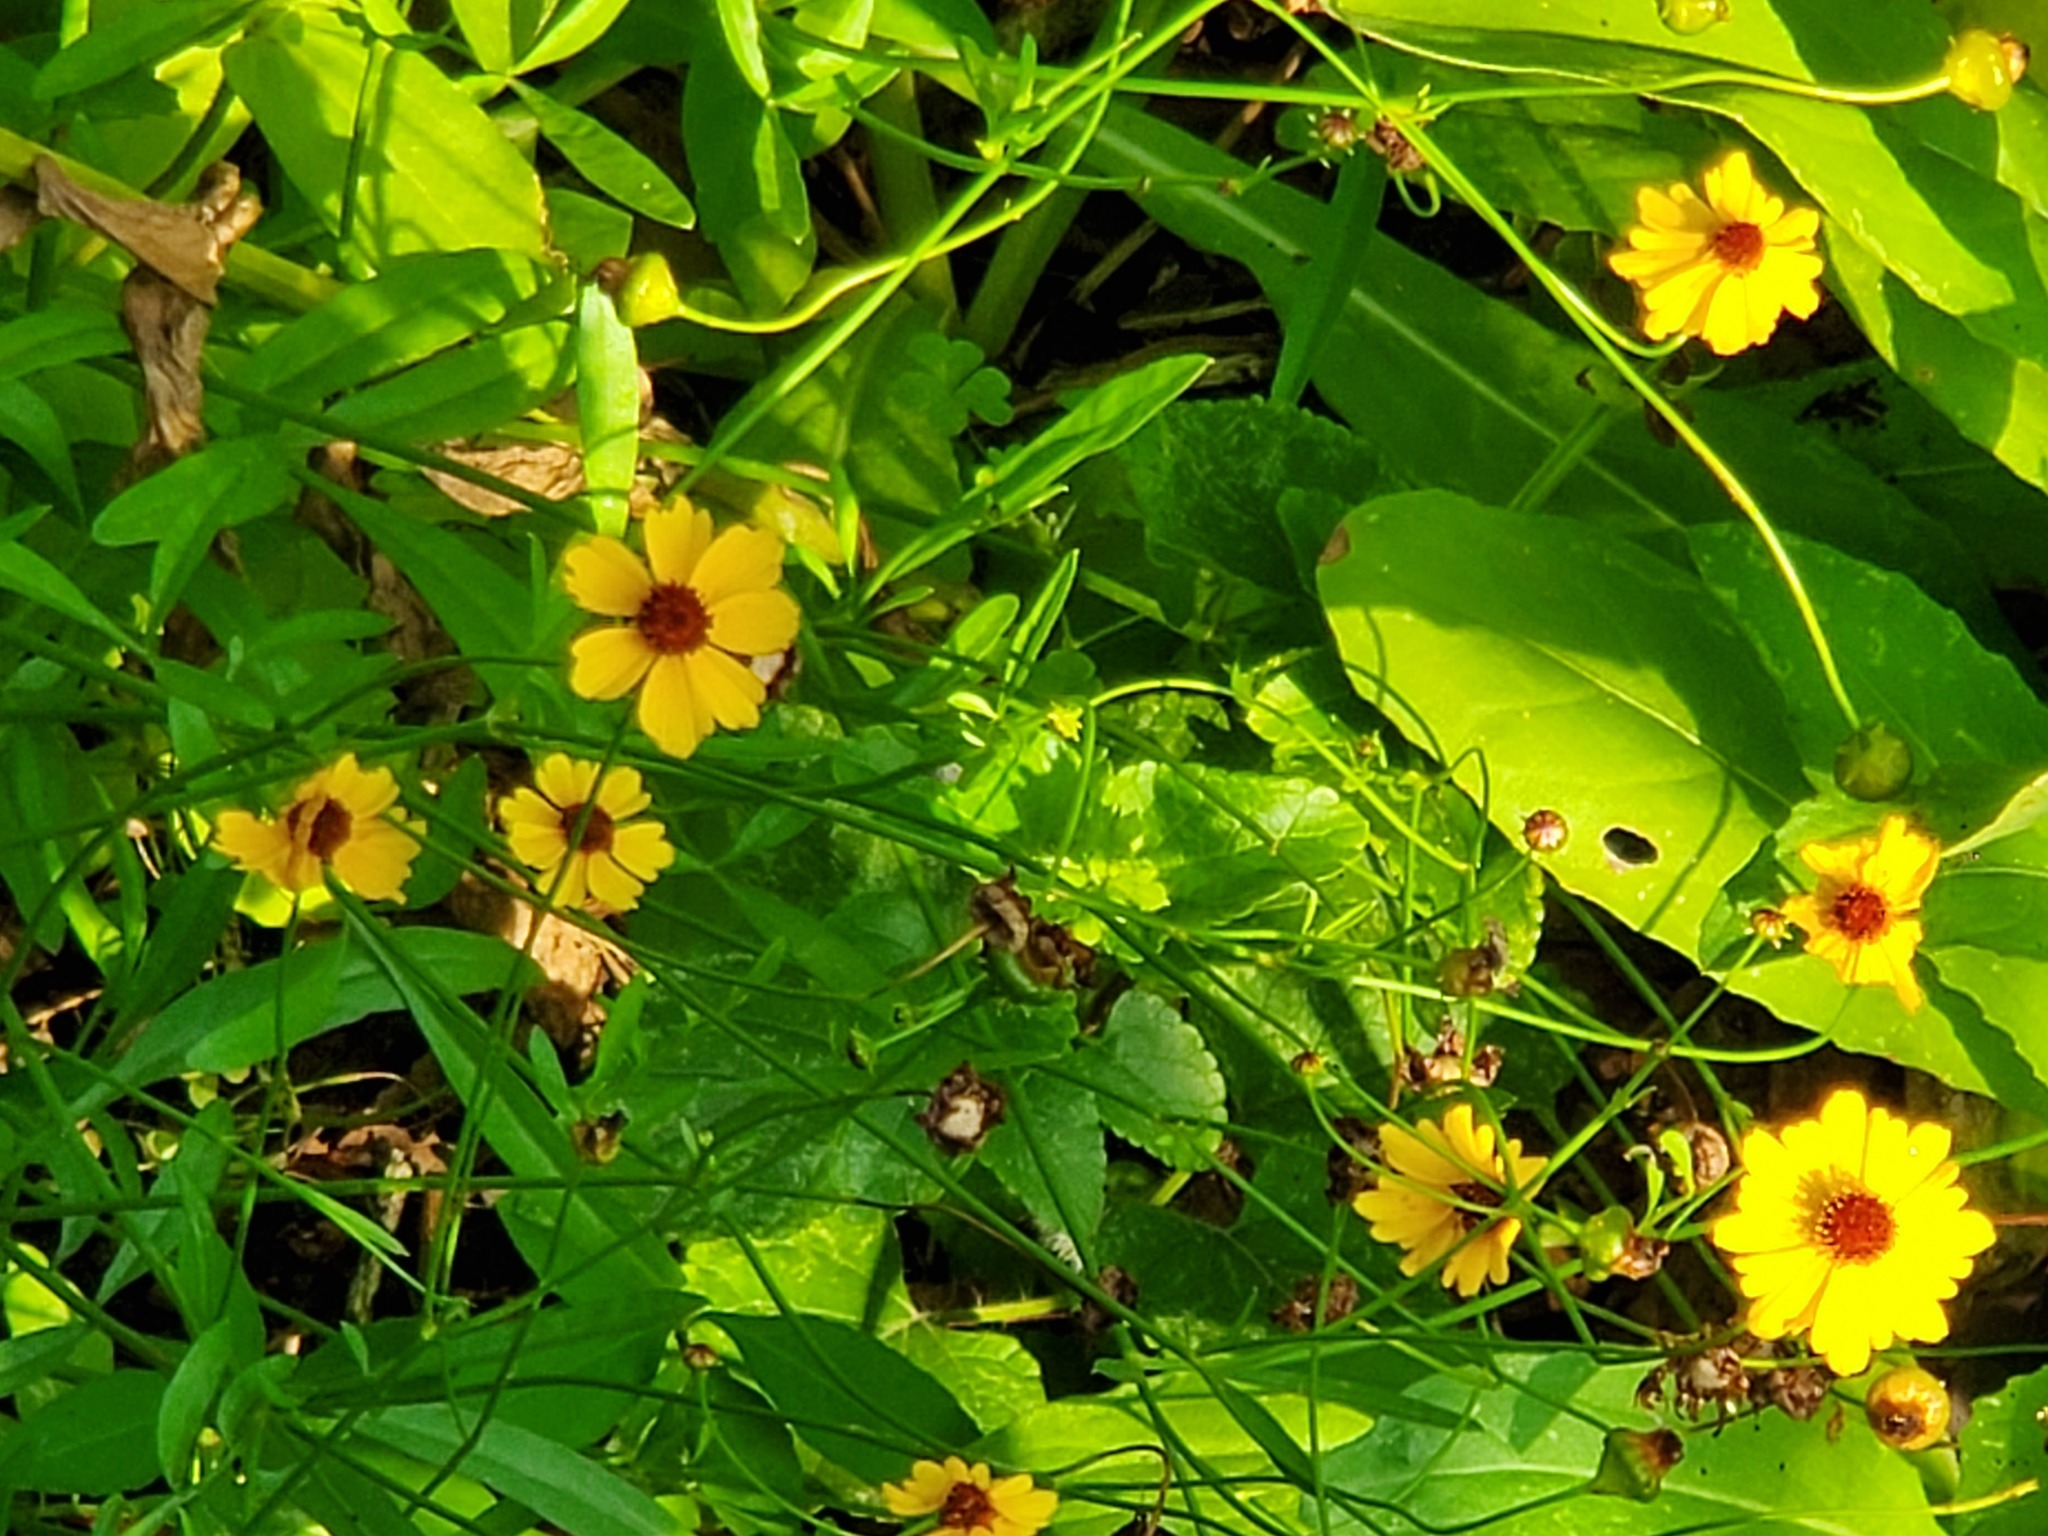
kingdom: Plantae
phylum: Tracheophyta
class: Magnoliopsida
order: Asterales
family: Asteraceae
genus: Coreopsis
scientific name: Coreopsis tinctoria
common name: Garden tickseed
